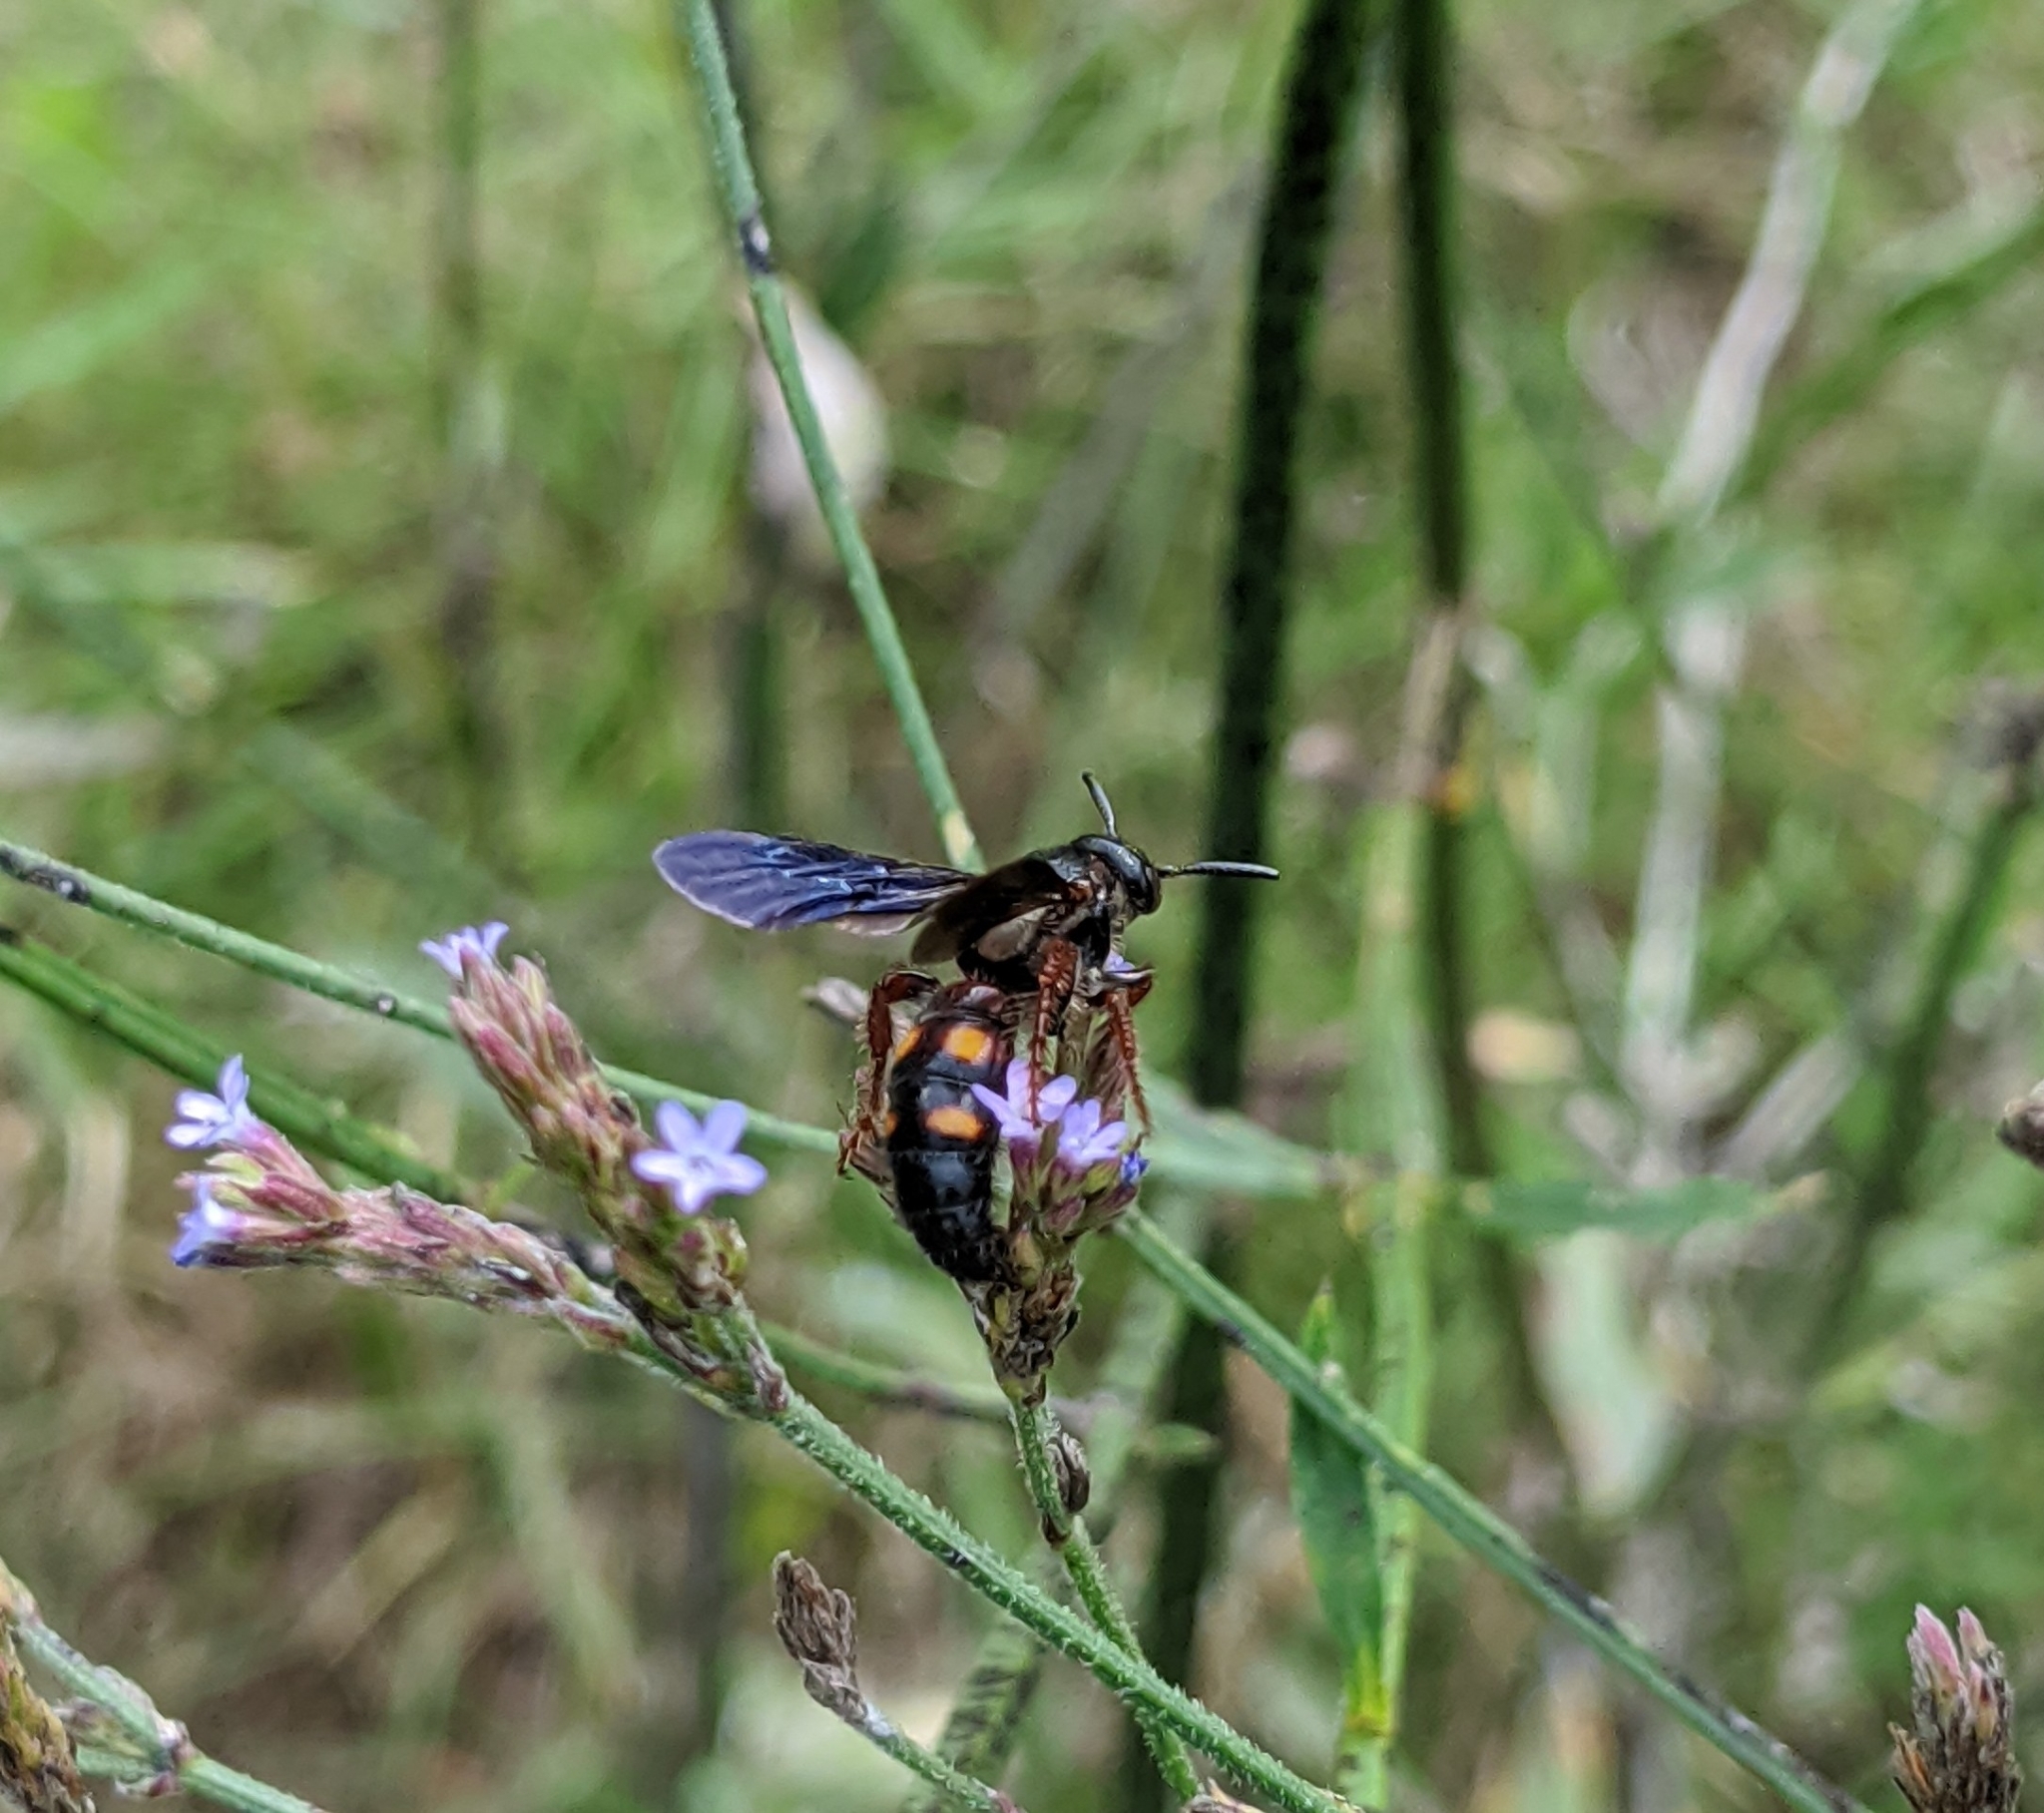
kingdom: Animalia
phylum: Arthropoda
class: Insecta
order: Hymenoptera
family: Scoliidae
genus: Scolia
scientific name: Scolia nobilitata
